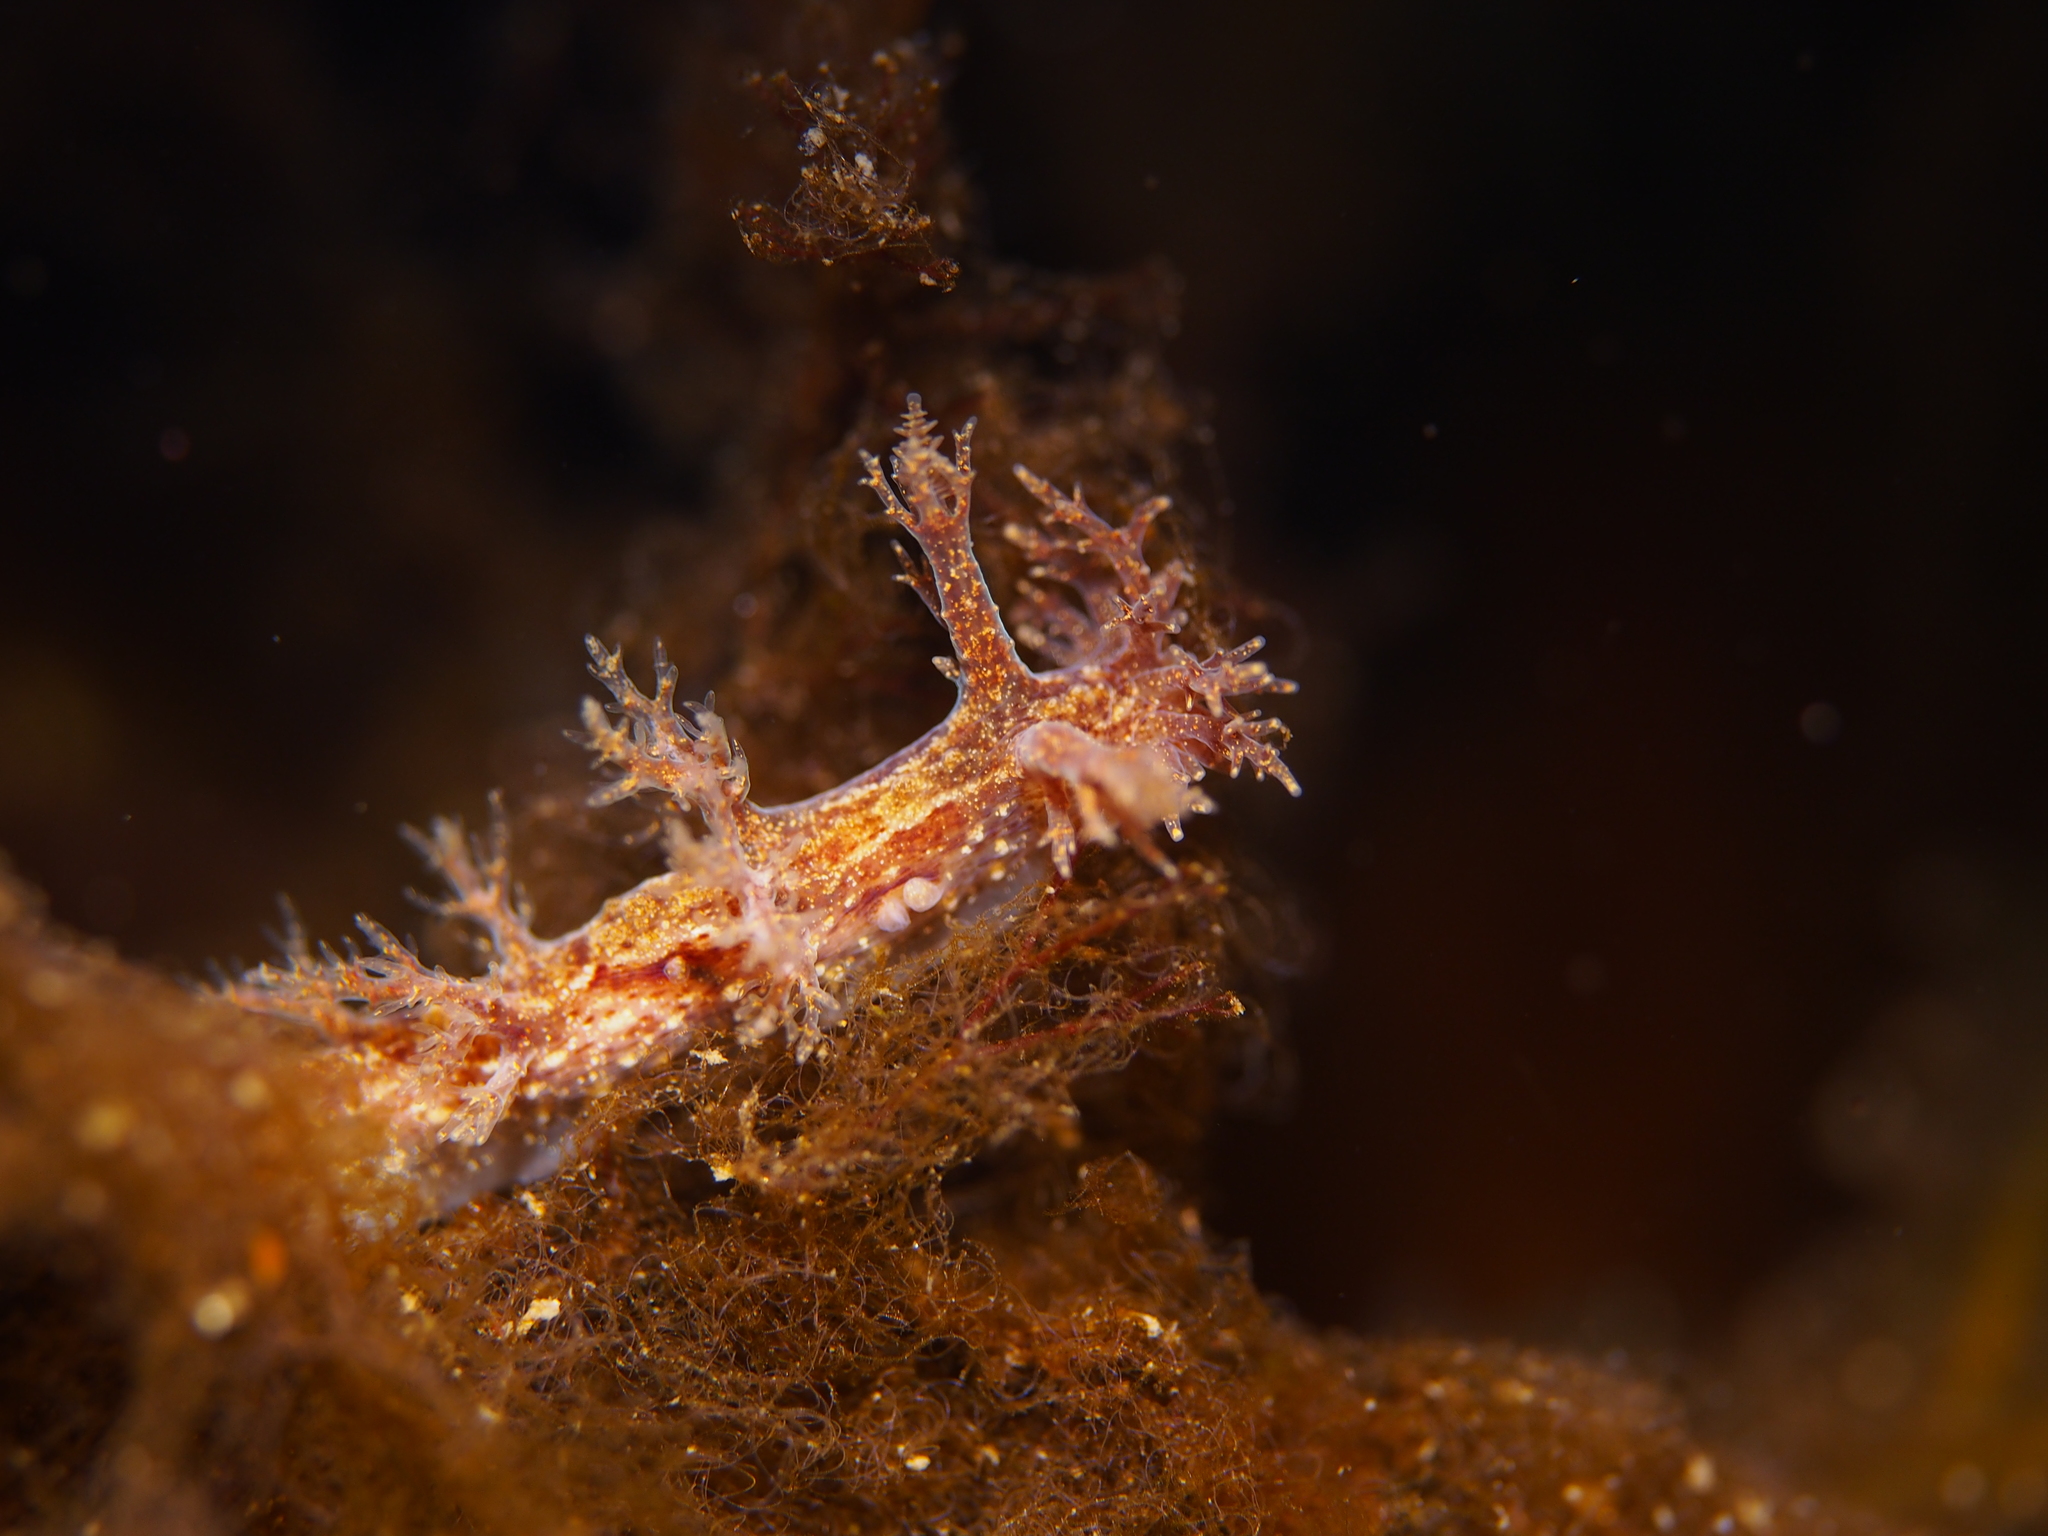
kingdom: Animalia
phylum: Mollusca
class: Gastropoda
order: Nudibranchia
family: Dendronotidae
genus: Dendronotus
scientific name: Dendronotus frondosus
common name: Bushy-backed nudibranch
